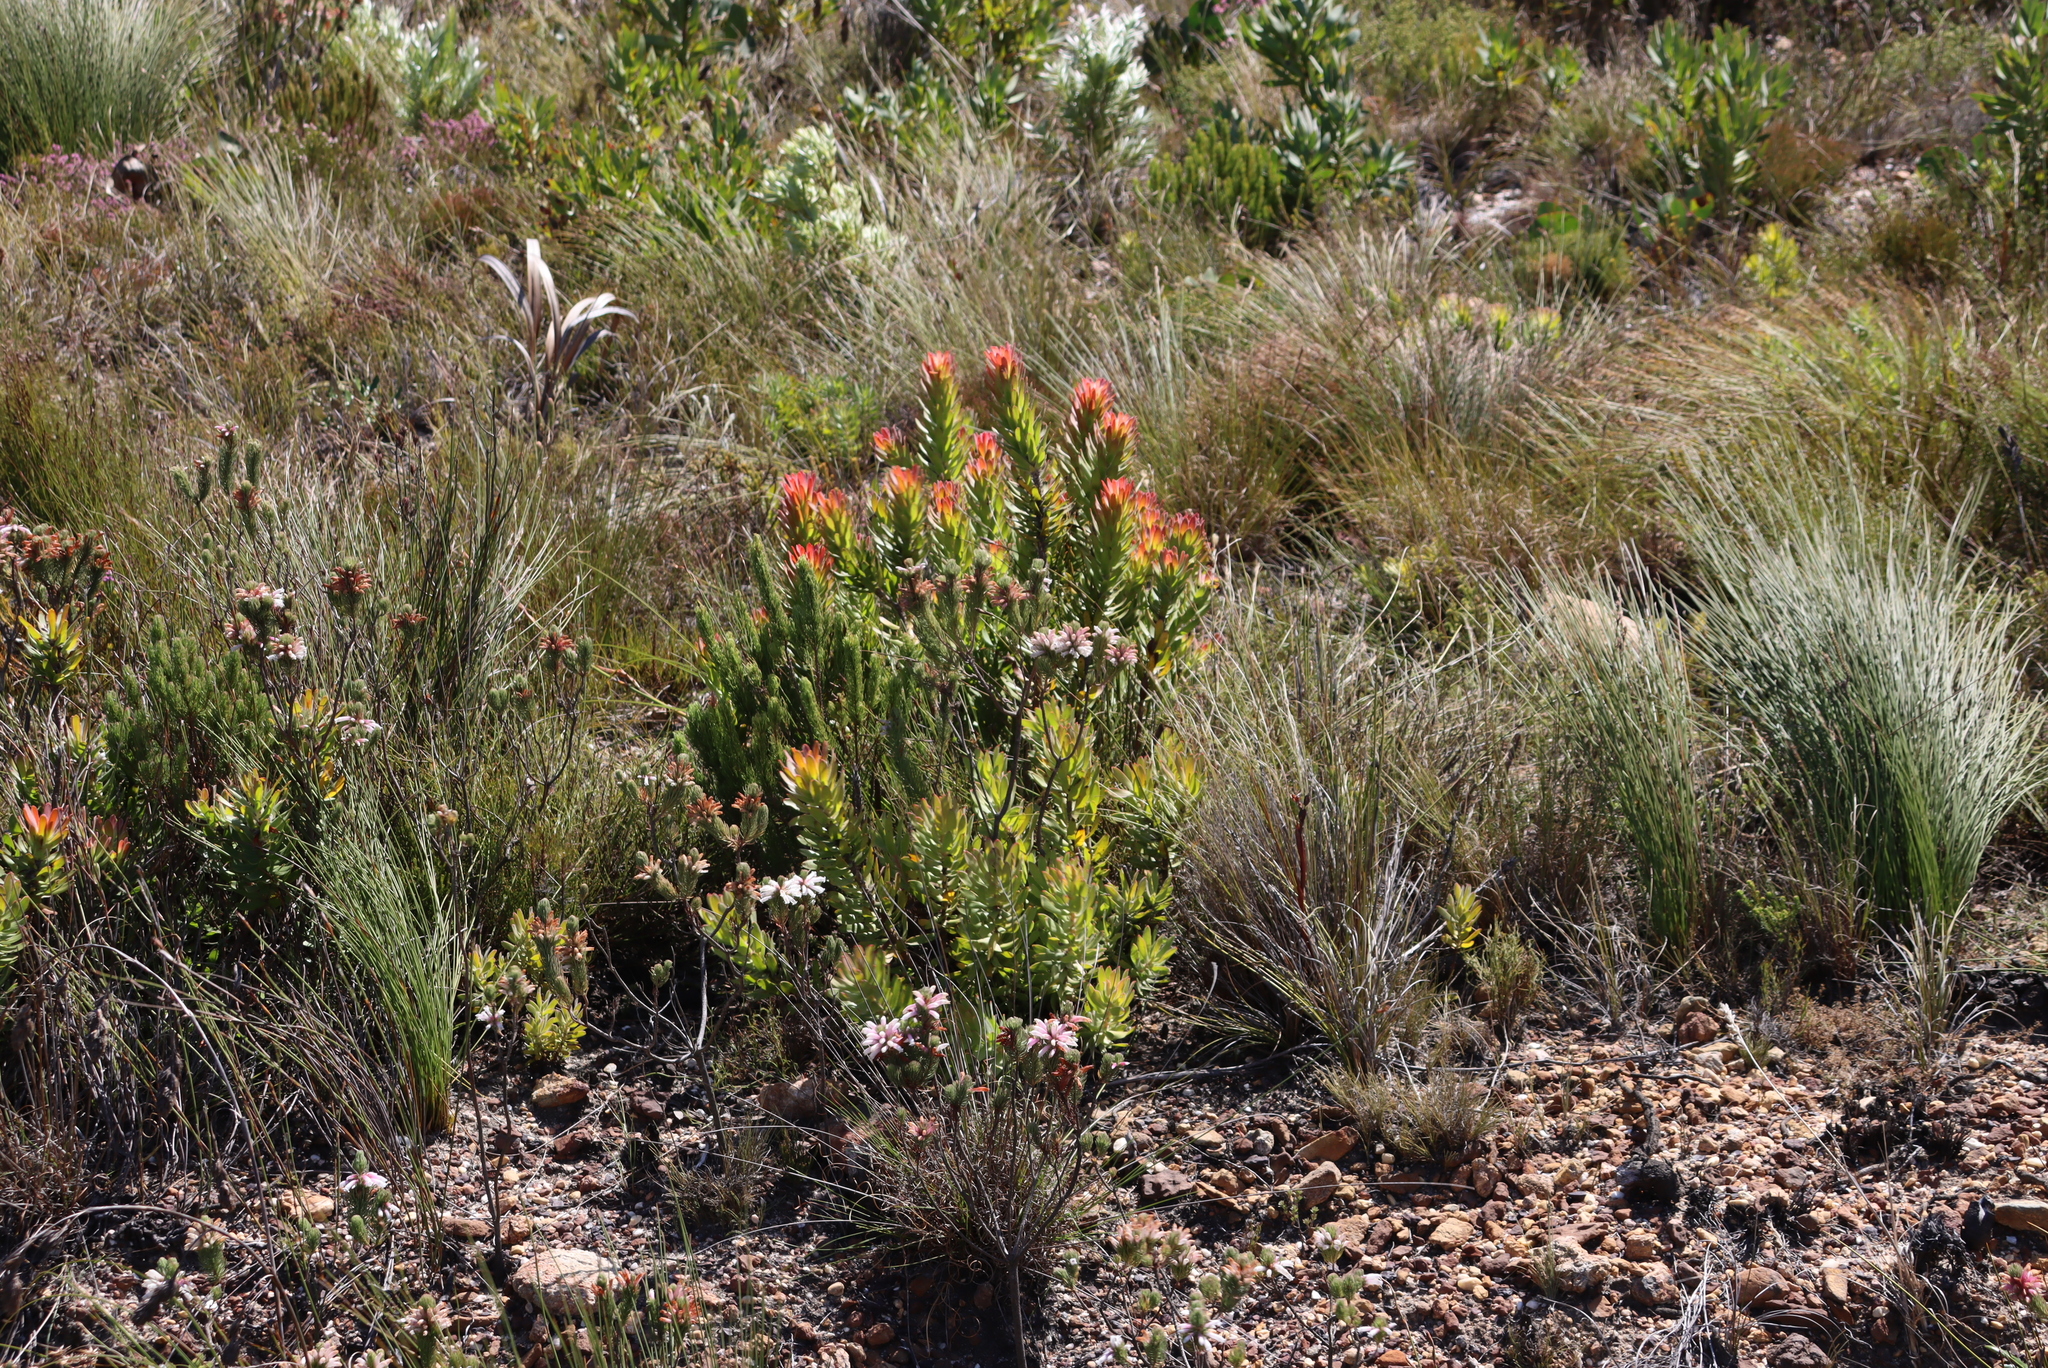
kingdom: Plantae
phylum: Tracheophyta
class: Magnoliopsida
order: Proteales
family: Proteaceae
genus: Mimetes
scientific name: Mimetes cucullatus
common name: Common pagoda
